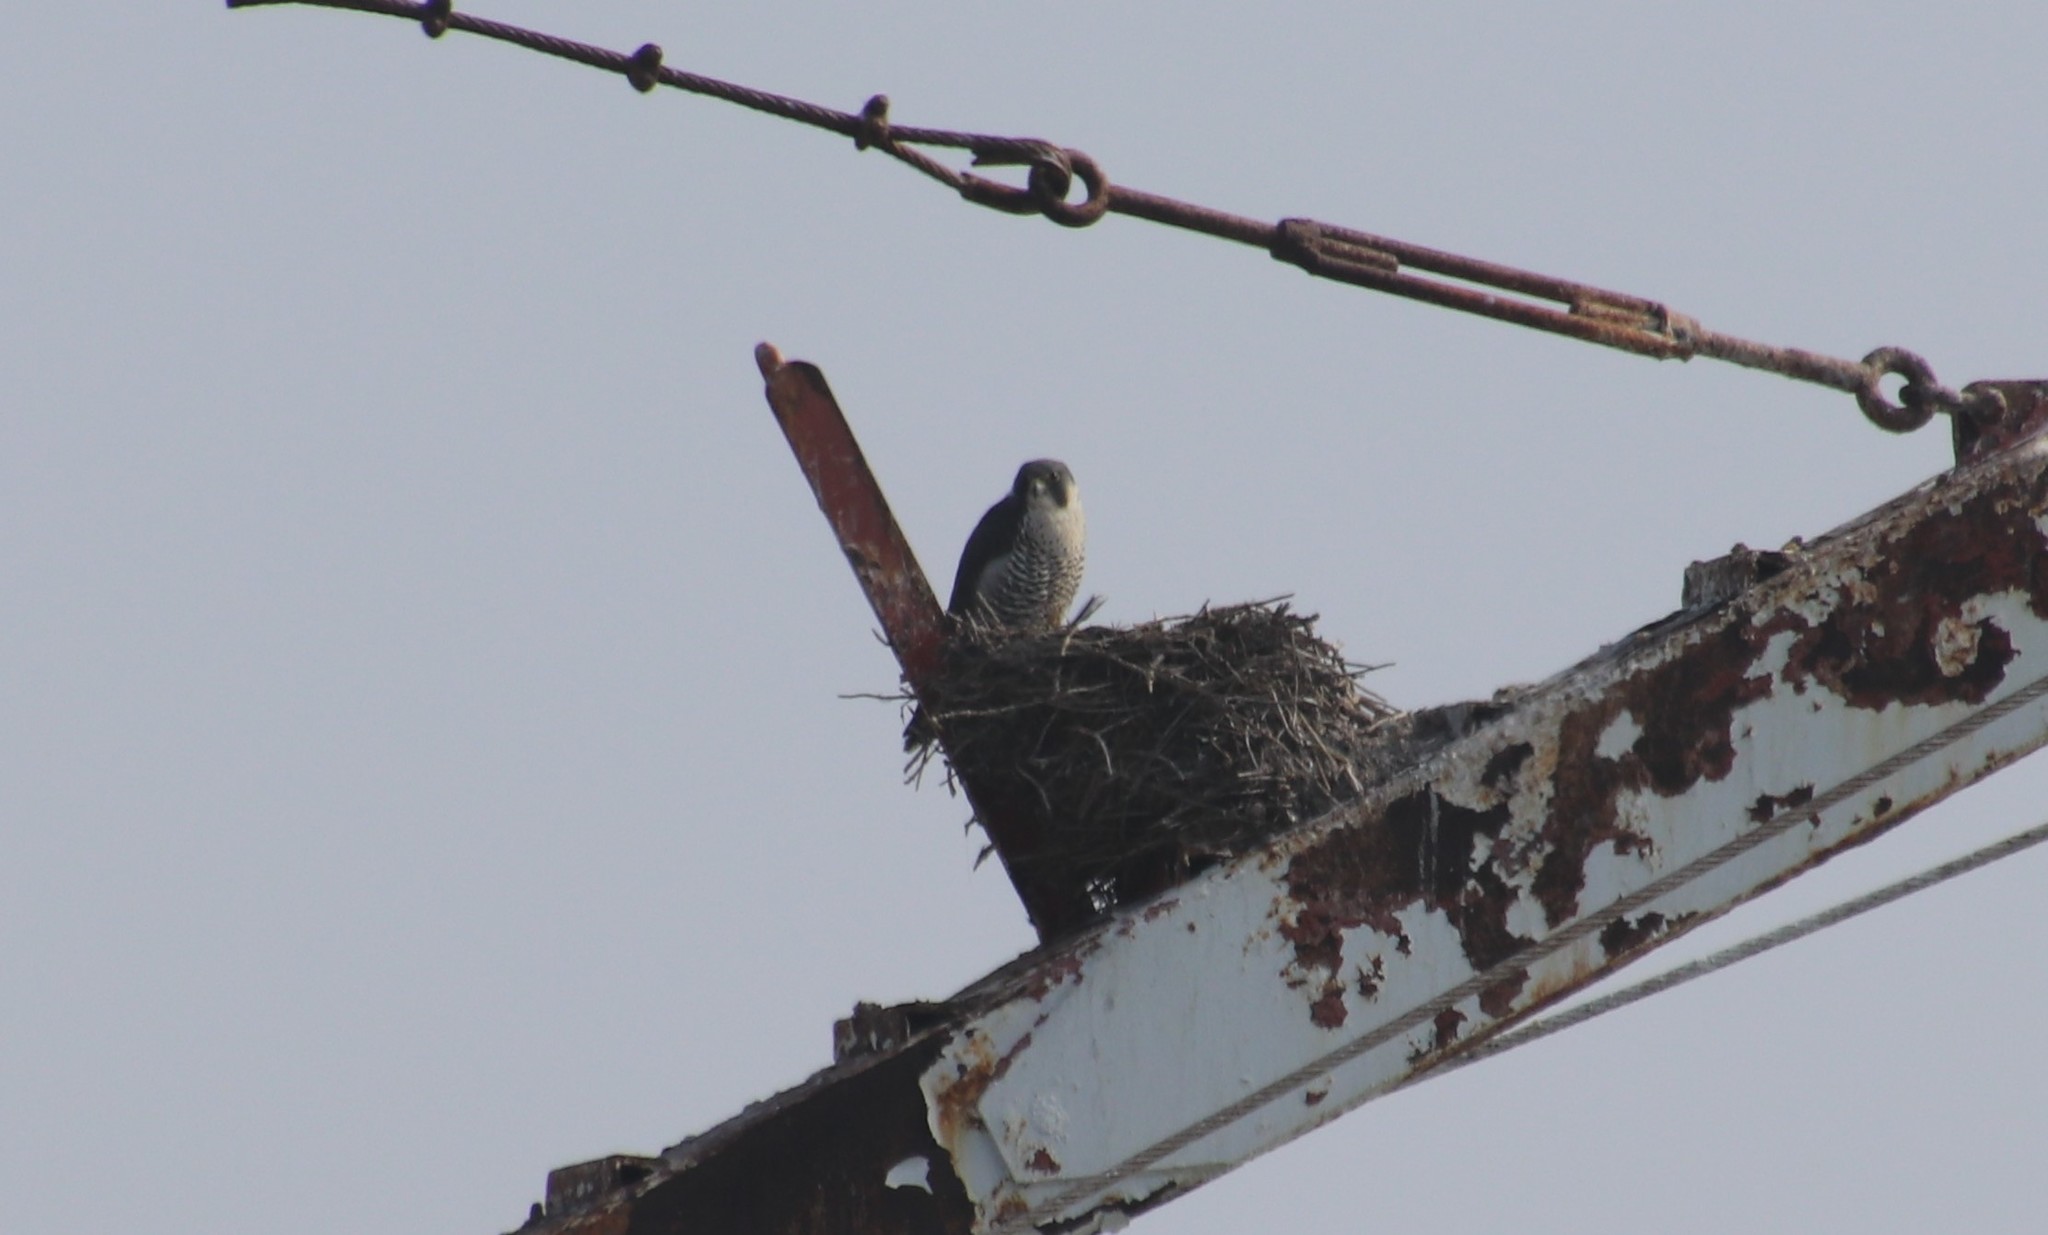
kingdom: Animalia
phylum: Chordata
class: Aves
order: Falconiformes
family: Falconidae
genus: Falco
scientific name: Falco peregrinus
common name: Peregrine falcon
